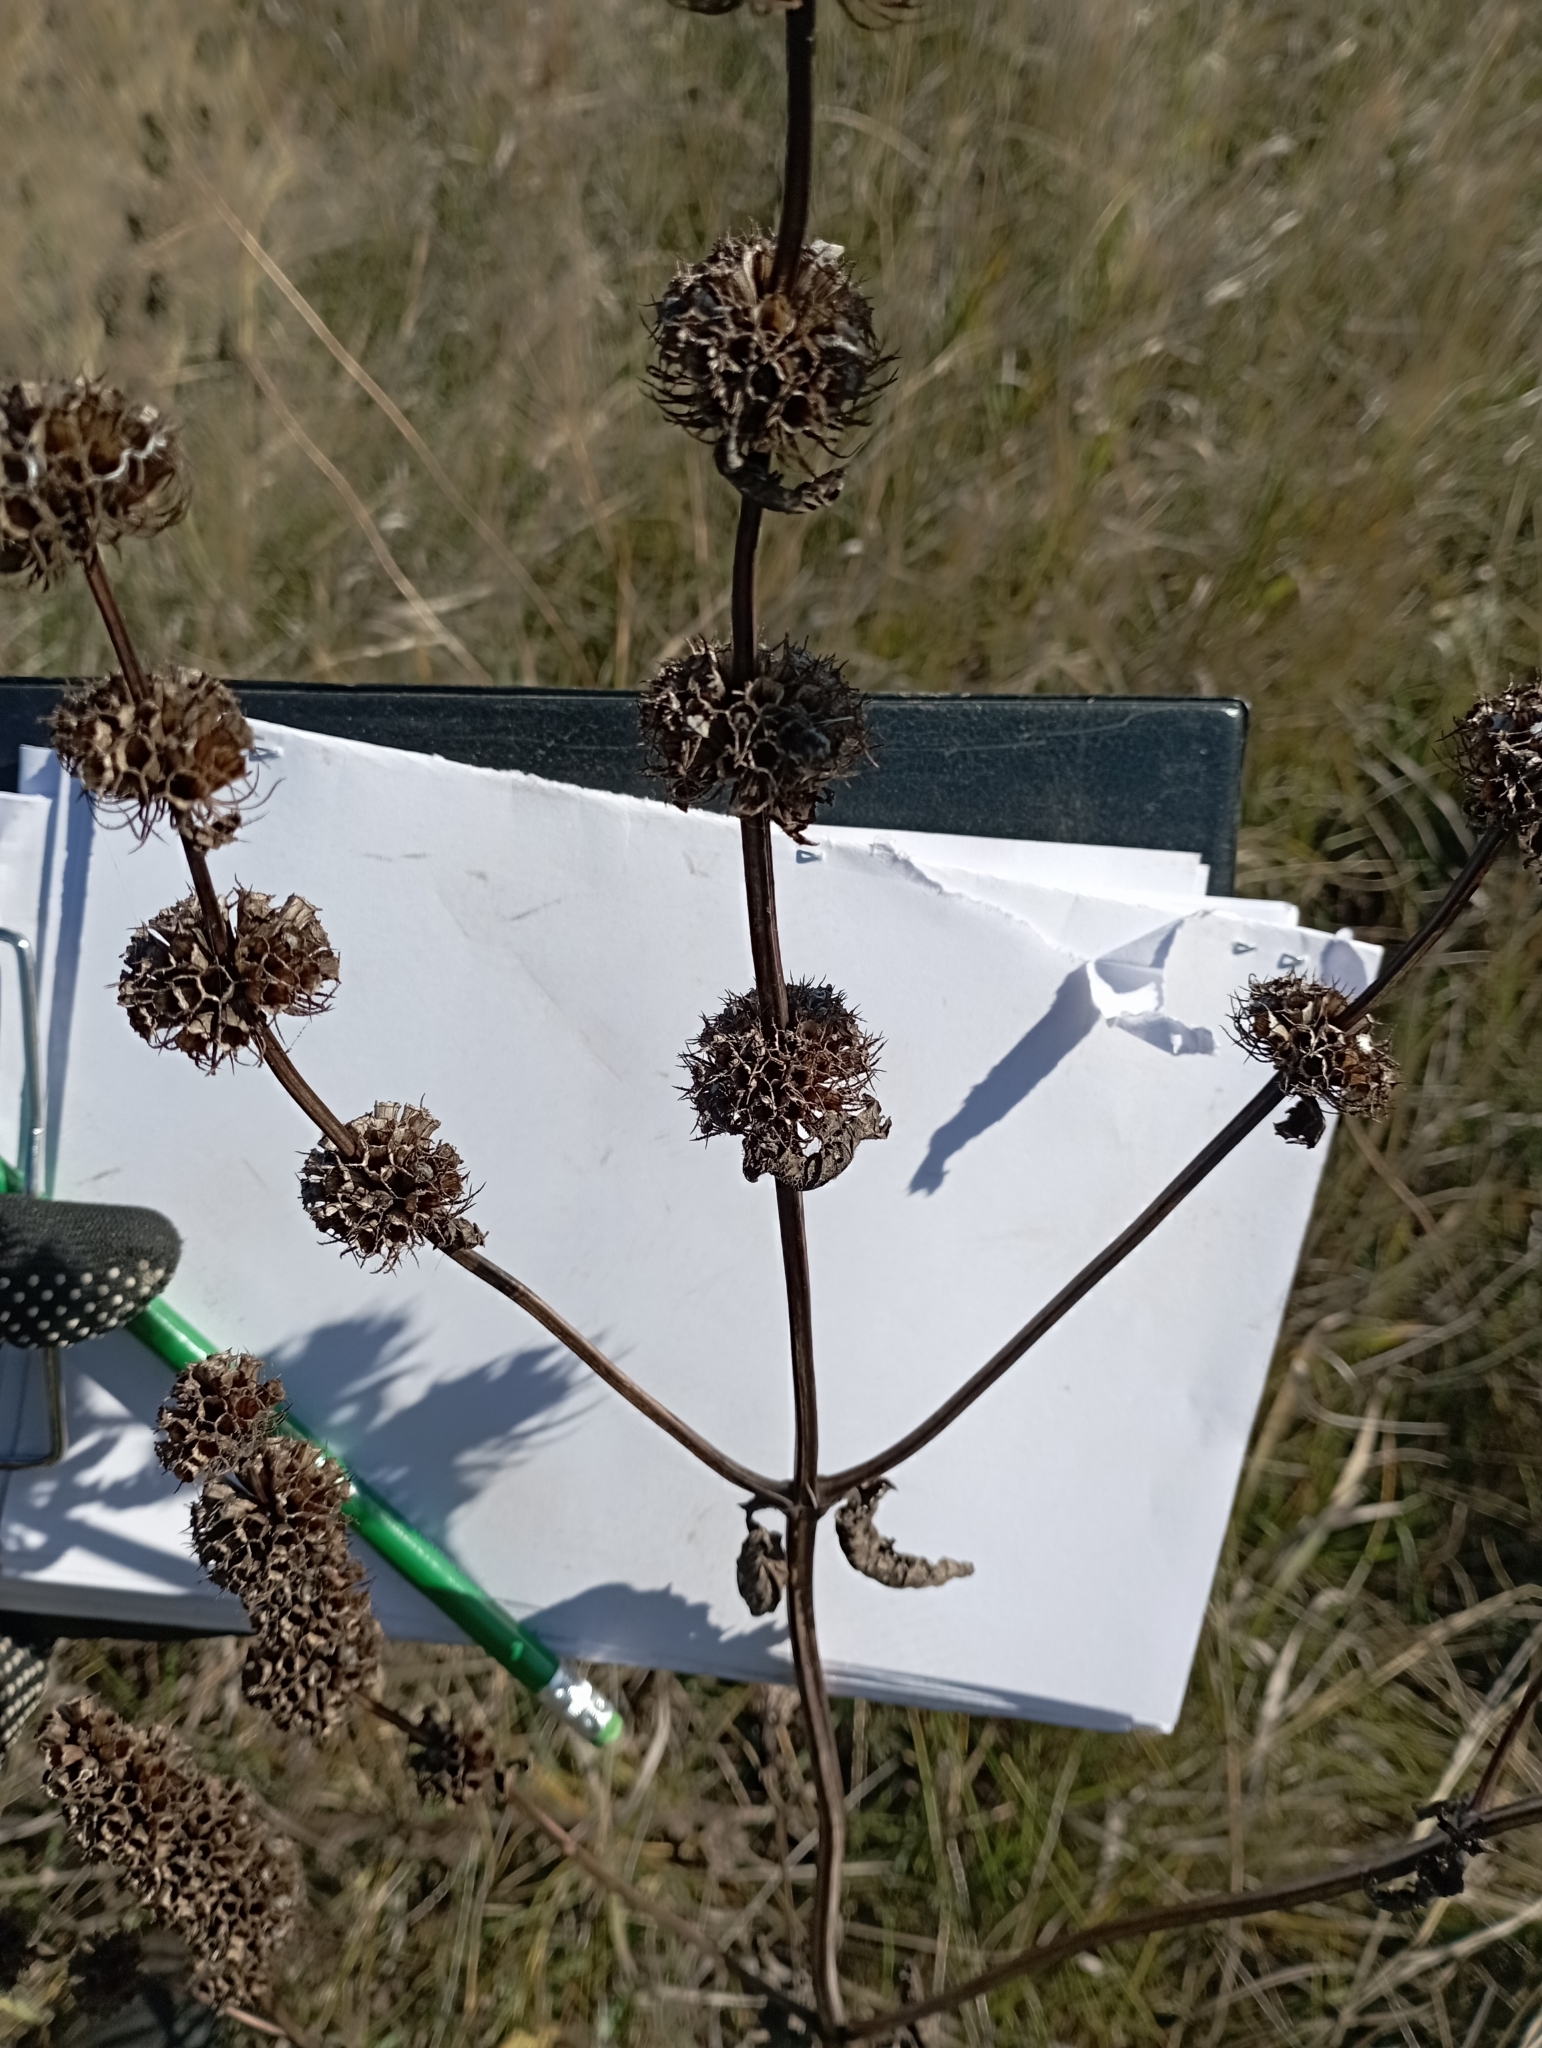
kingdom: Plantae
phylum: Tracheophyta
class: Magnoliopsida
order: Lamiales
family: Lamiaceae
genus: Phlomoides
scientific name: Phlomoides tuberosa
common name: Tuberous jerusalem sage
